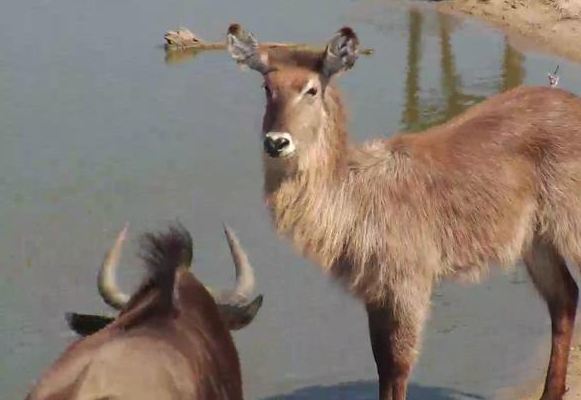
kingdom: Animalia
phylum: Chordata
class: Mammalia
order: Artiodactyla
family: Bovidae
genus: Kobus
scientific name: Kobus ellipsiprymnus
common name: Waterbuck
